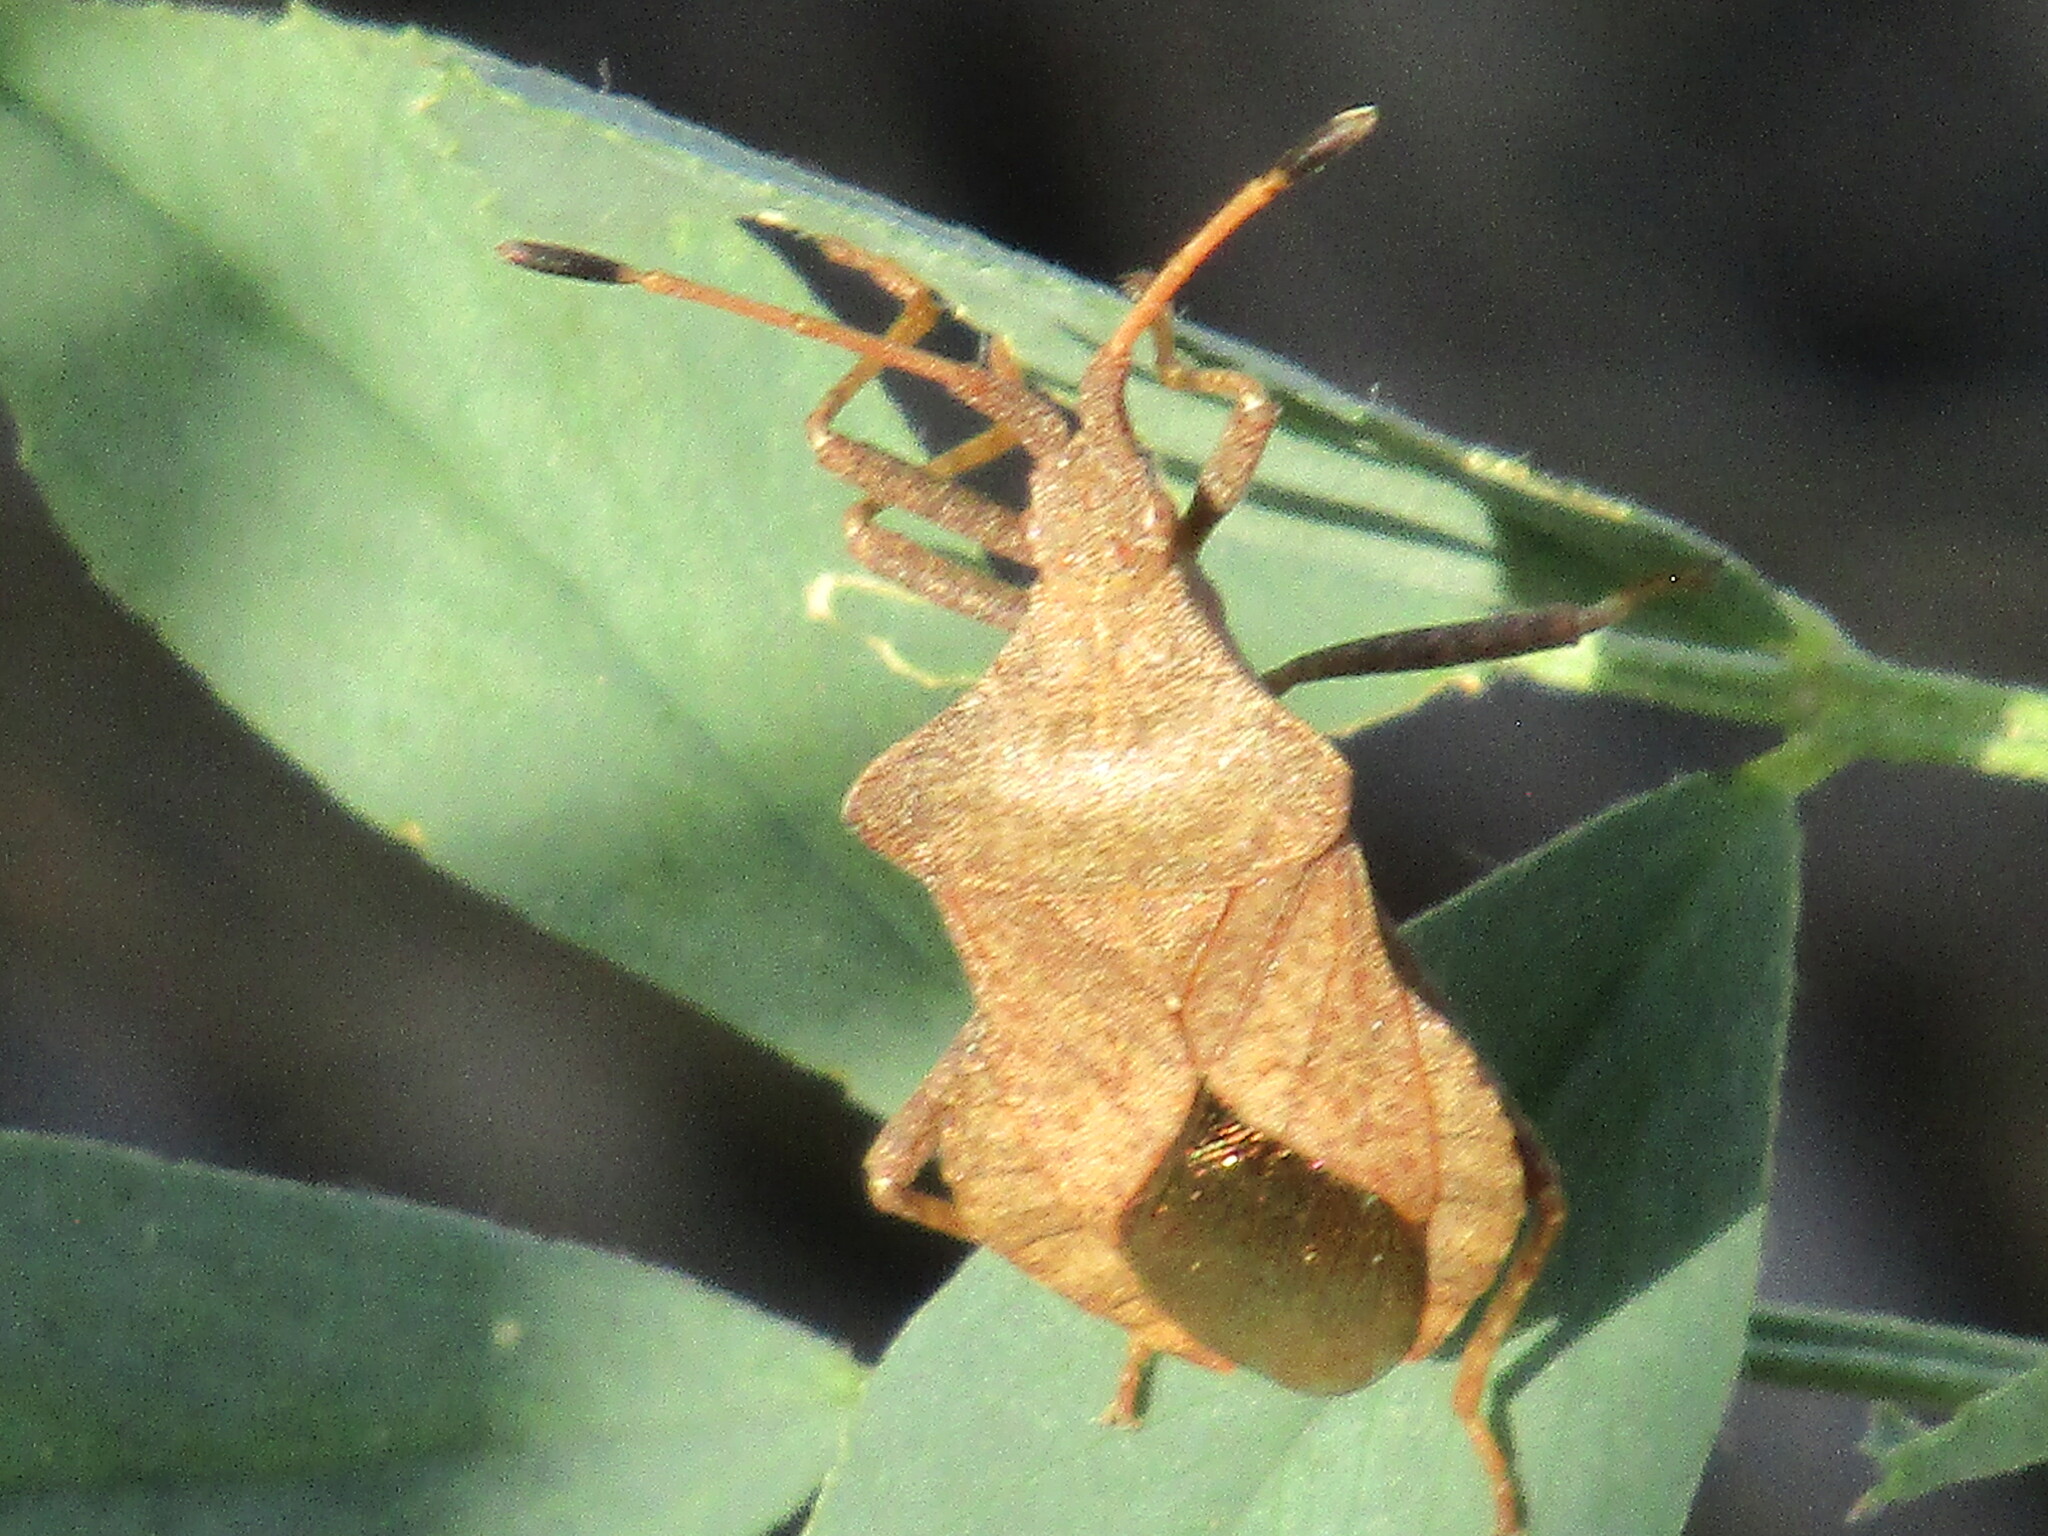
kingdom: Animalia
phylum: Arthropoda
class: Insecta
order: Hemiptera
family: Coreidae
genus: Coreus
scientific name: Coreus marginatus
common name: Dock bug
